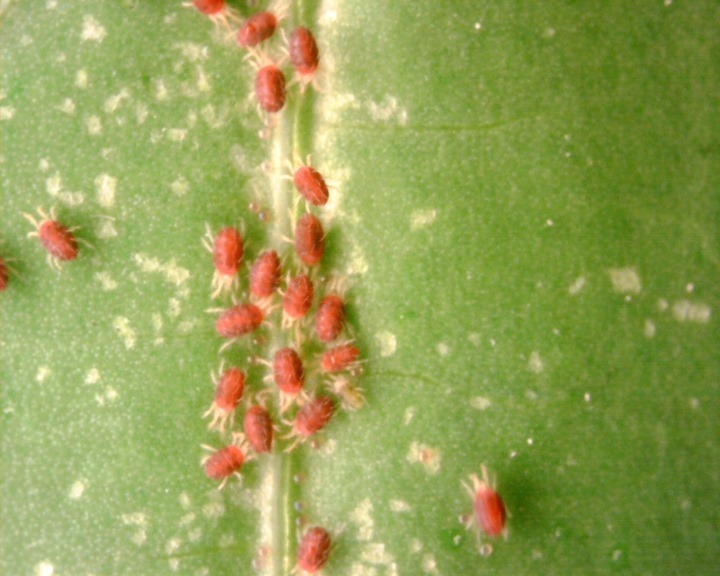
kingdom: Animalia
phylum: Arthropoda
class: Arachnida
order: Trombidiformes
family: Tetranychidae
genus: Tetranychus
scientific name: Tetranychus urticae
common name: Carmine spider mite
